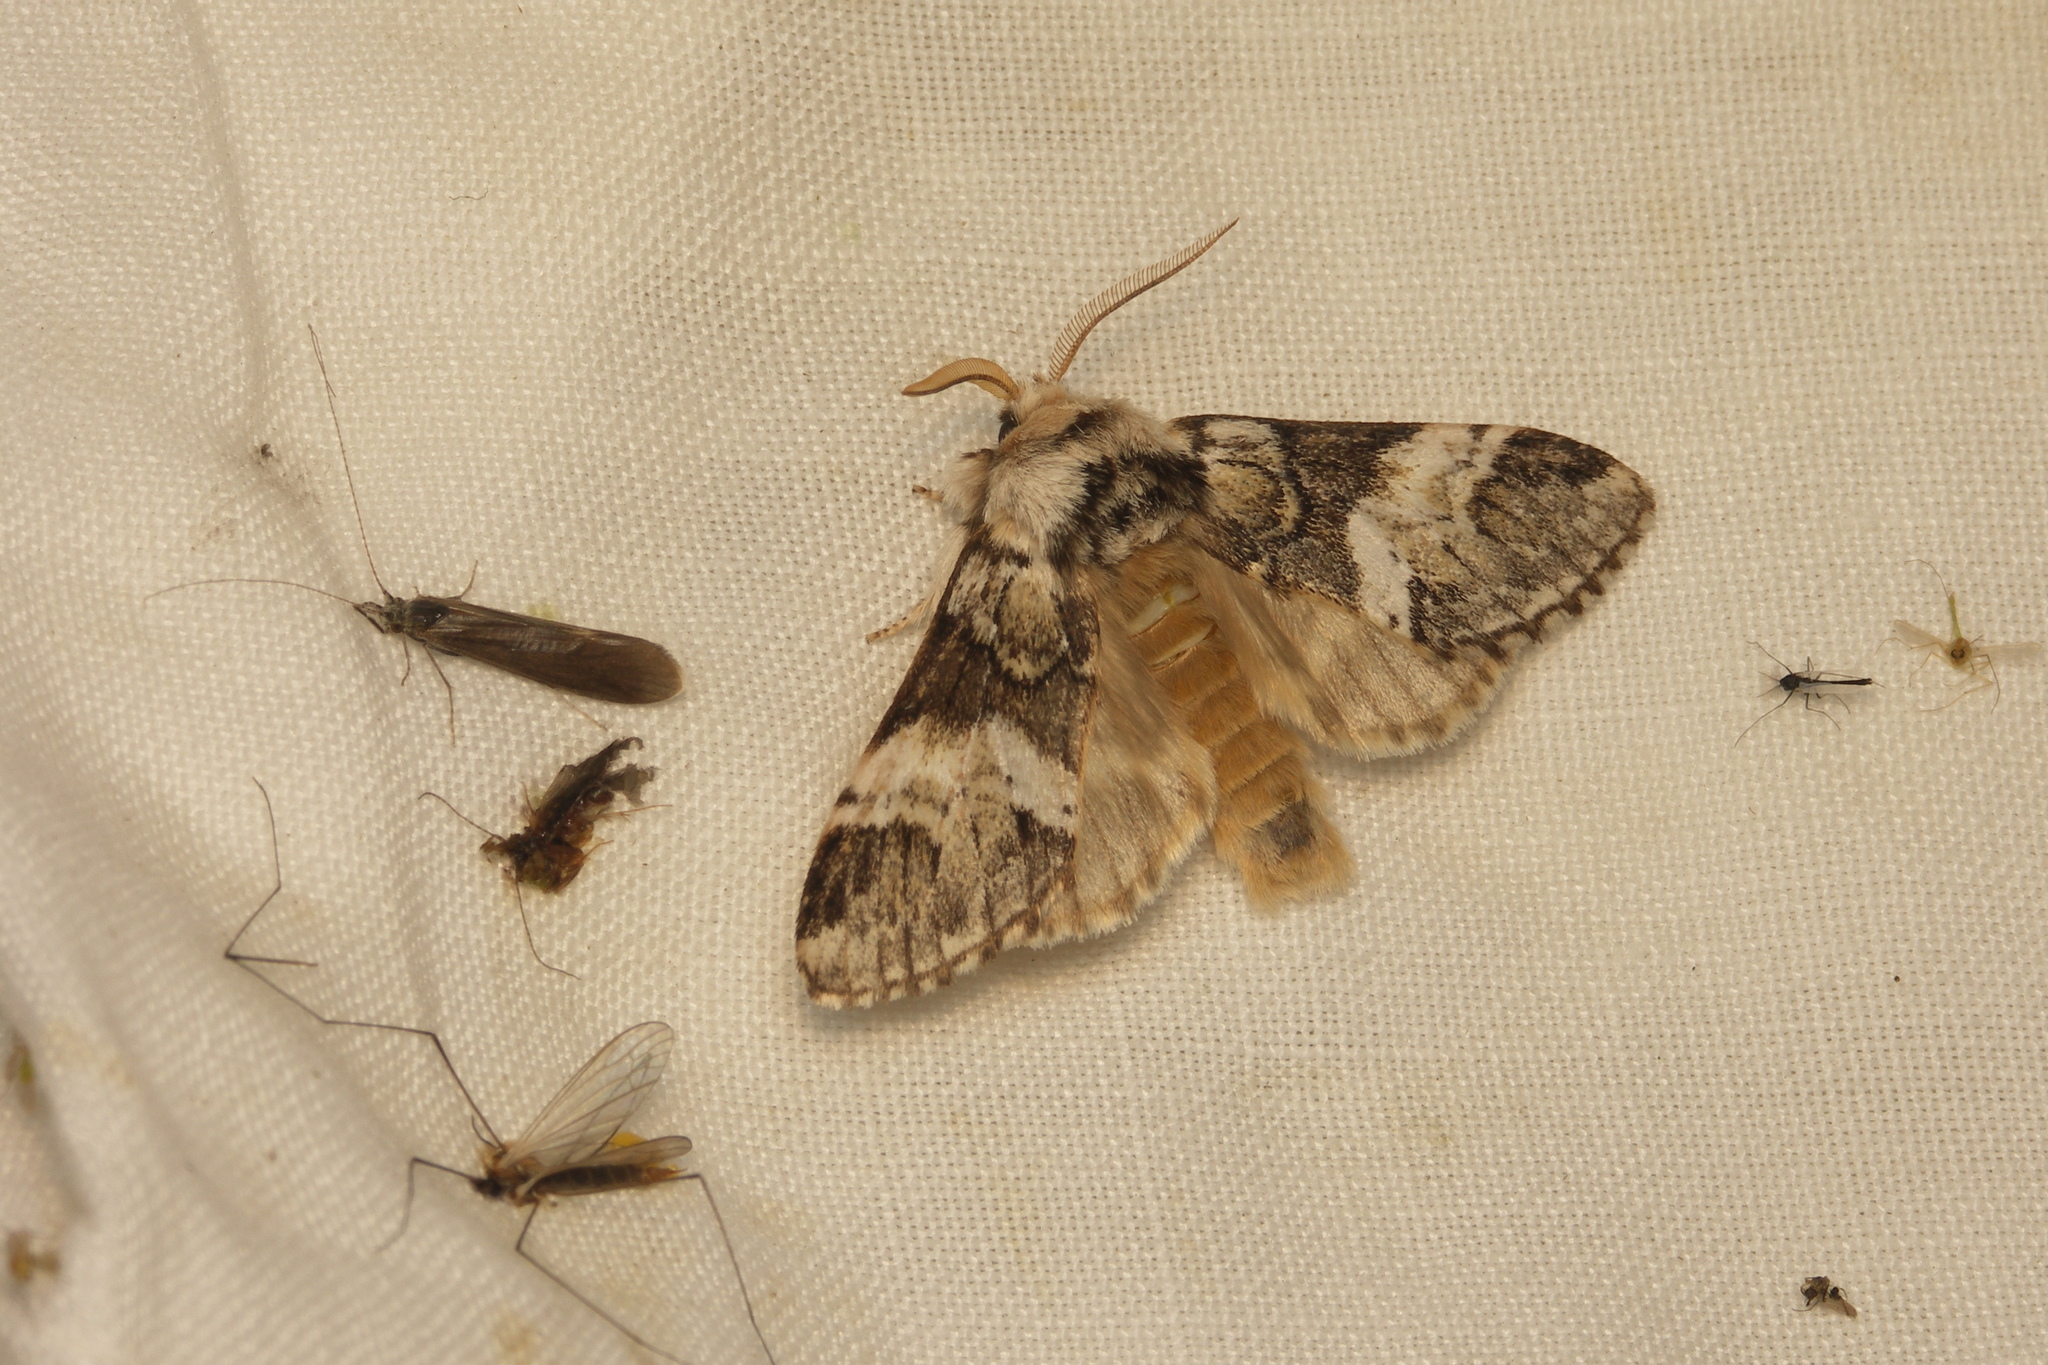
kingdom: Animalia
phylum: Arthropoda
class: Insecta
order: Lepidoptera
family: Notodontidae
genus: Drymonia
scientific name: Drymonia dodonaea
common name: Marbled brown
